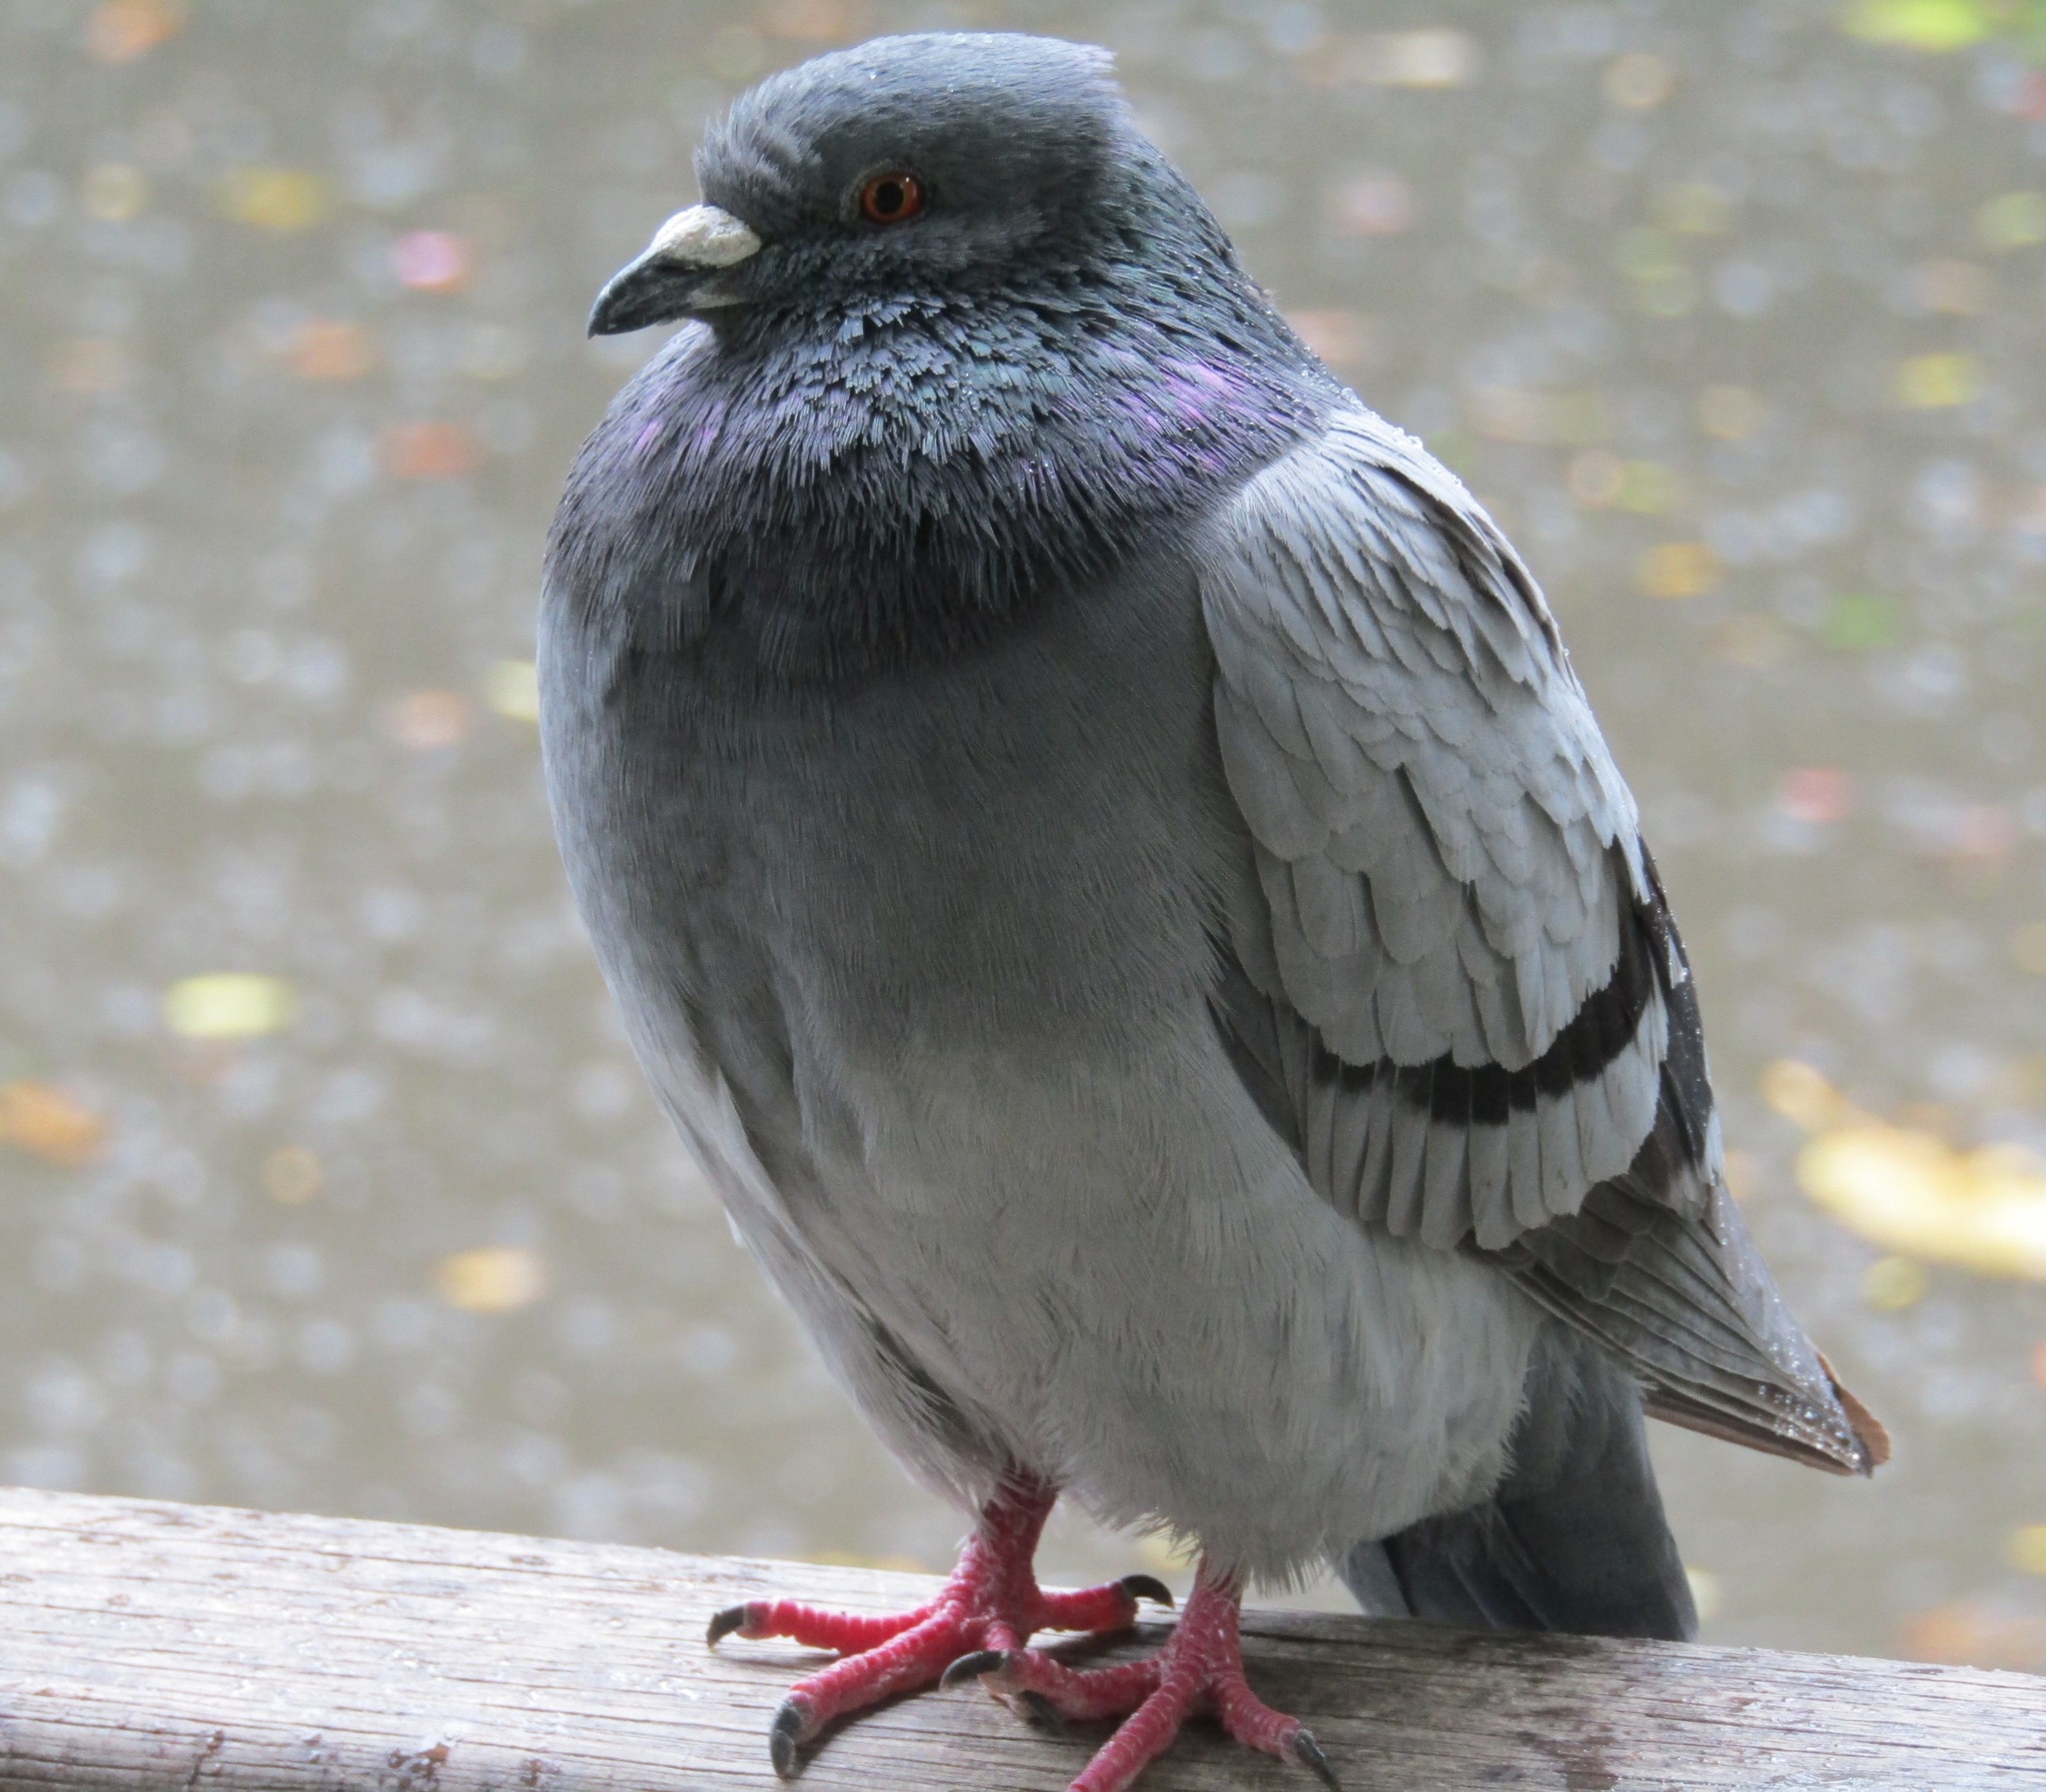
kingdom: Animalia
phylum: Chordata
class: Aves
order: Columbiformes
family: Columbidae
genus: Columba
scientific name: Columba livia
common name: Rock pigeon
